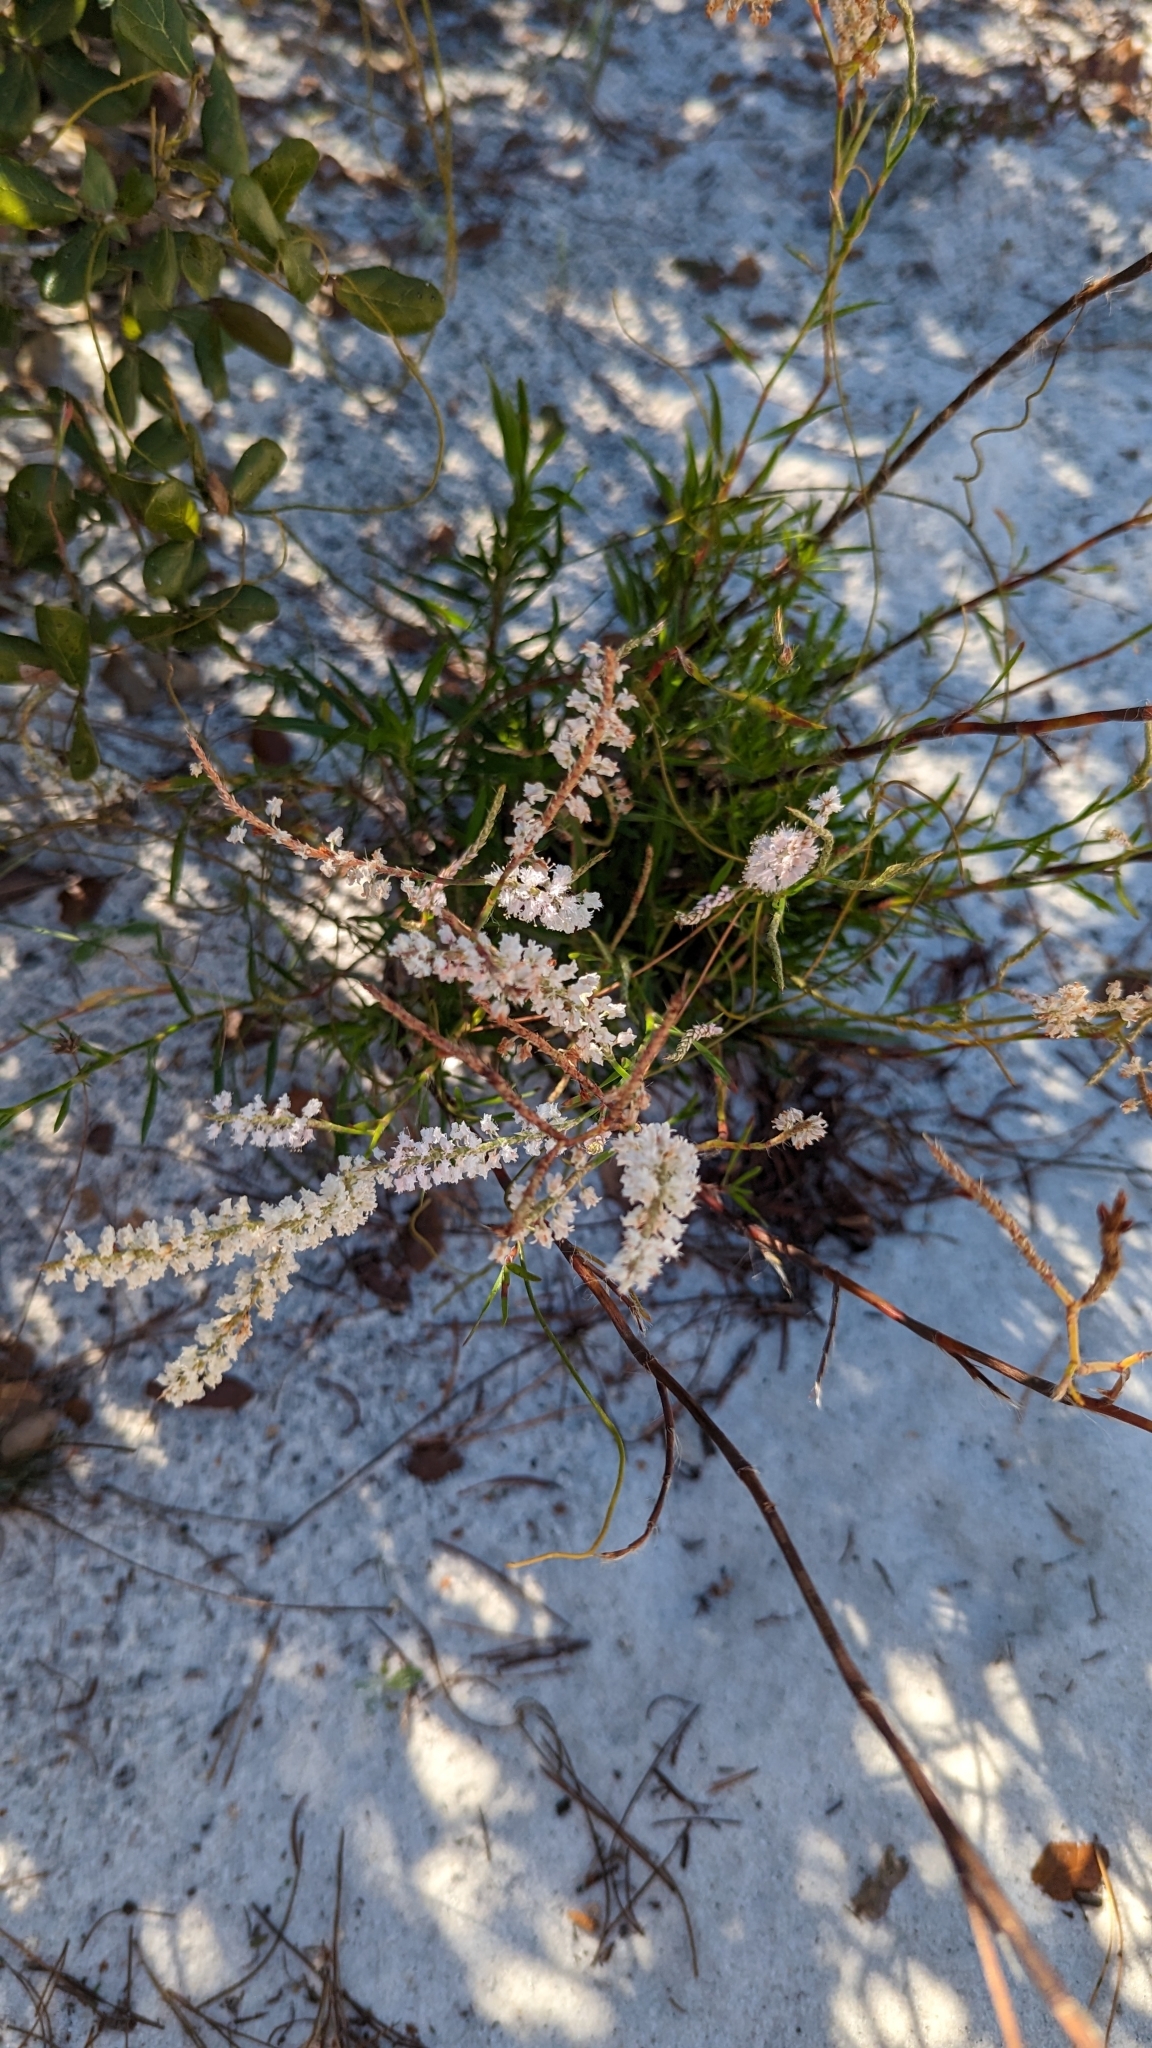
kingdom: Plantae
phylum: Tracheophyta
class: Magnoliopsida
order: Caryophyllales
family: Polygonaceae
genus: Polygonella
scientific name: Polygonella robusta
